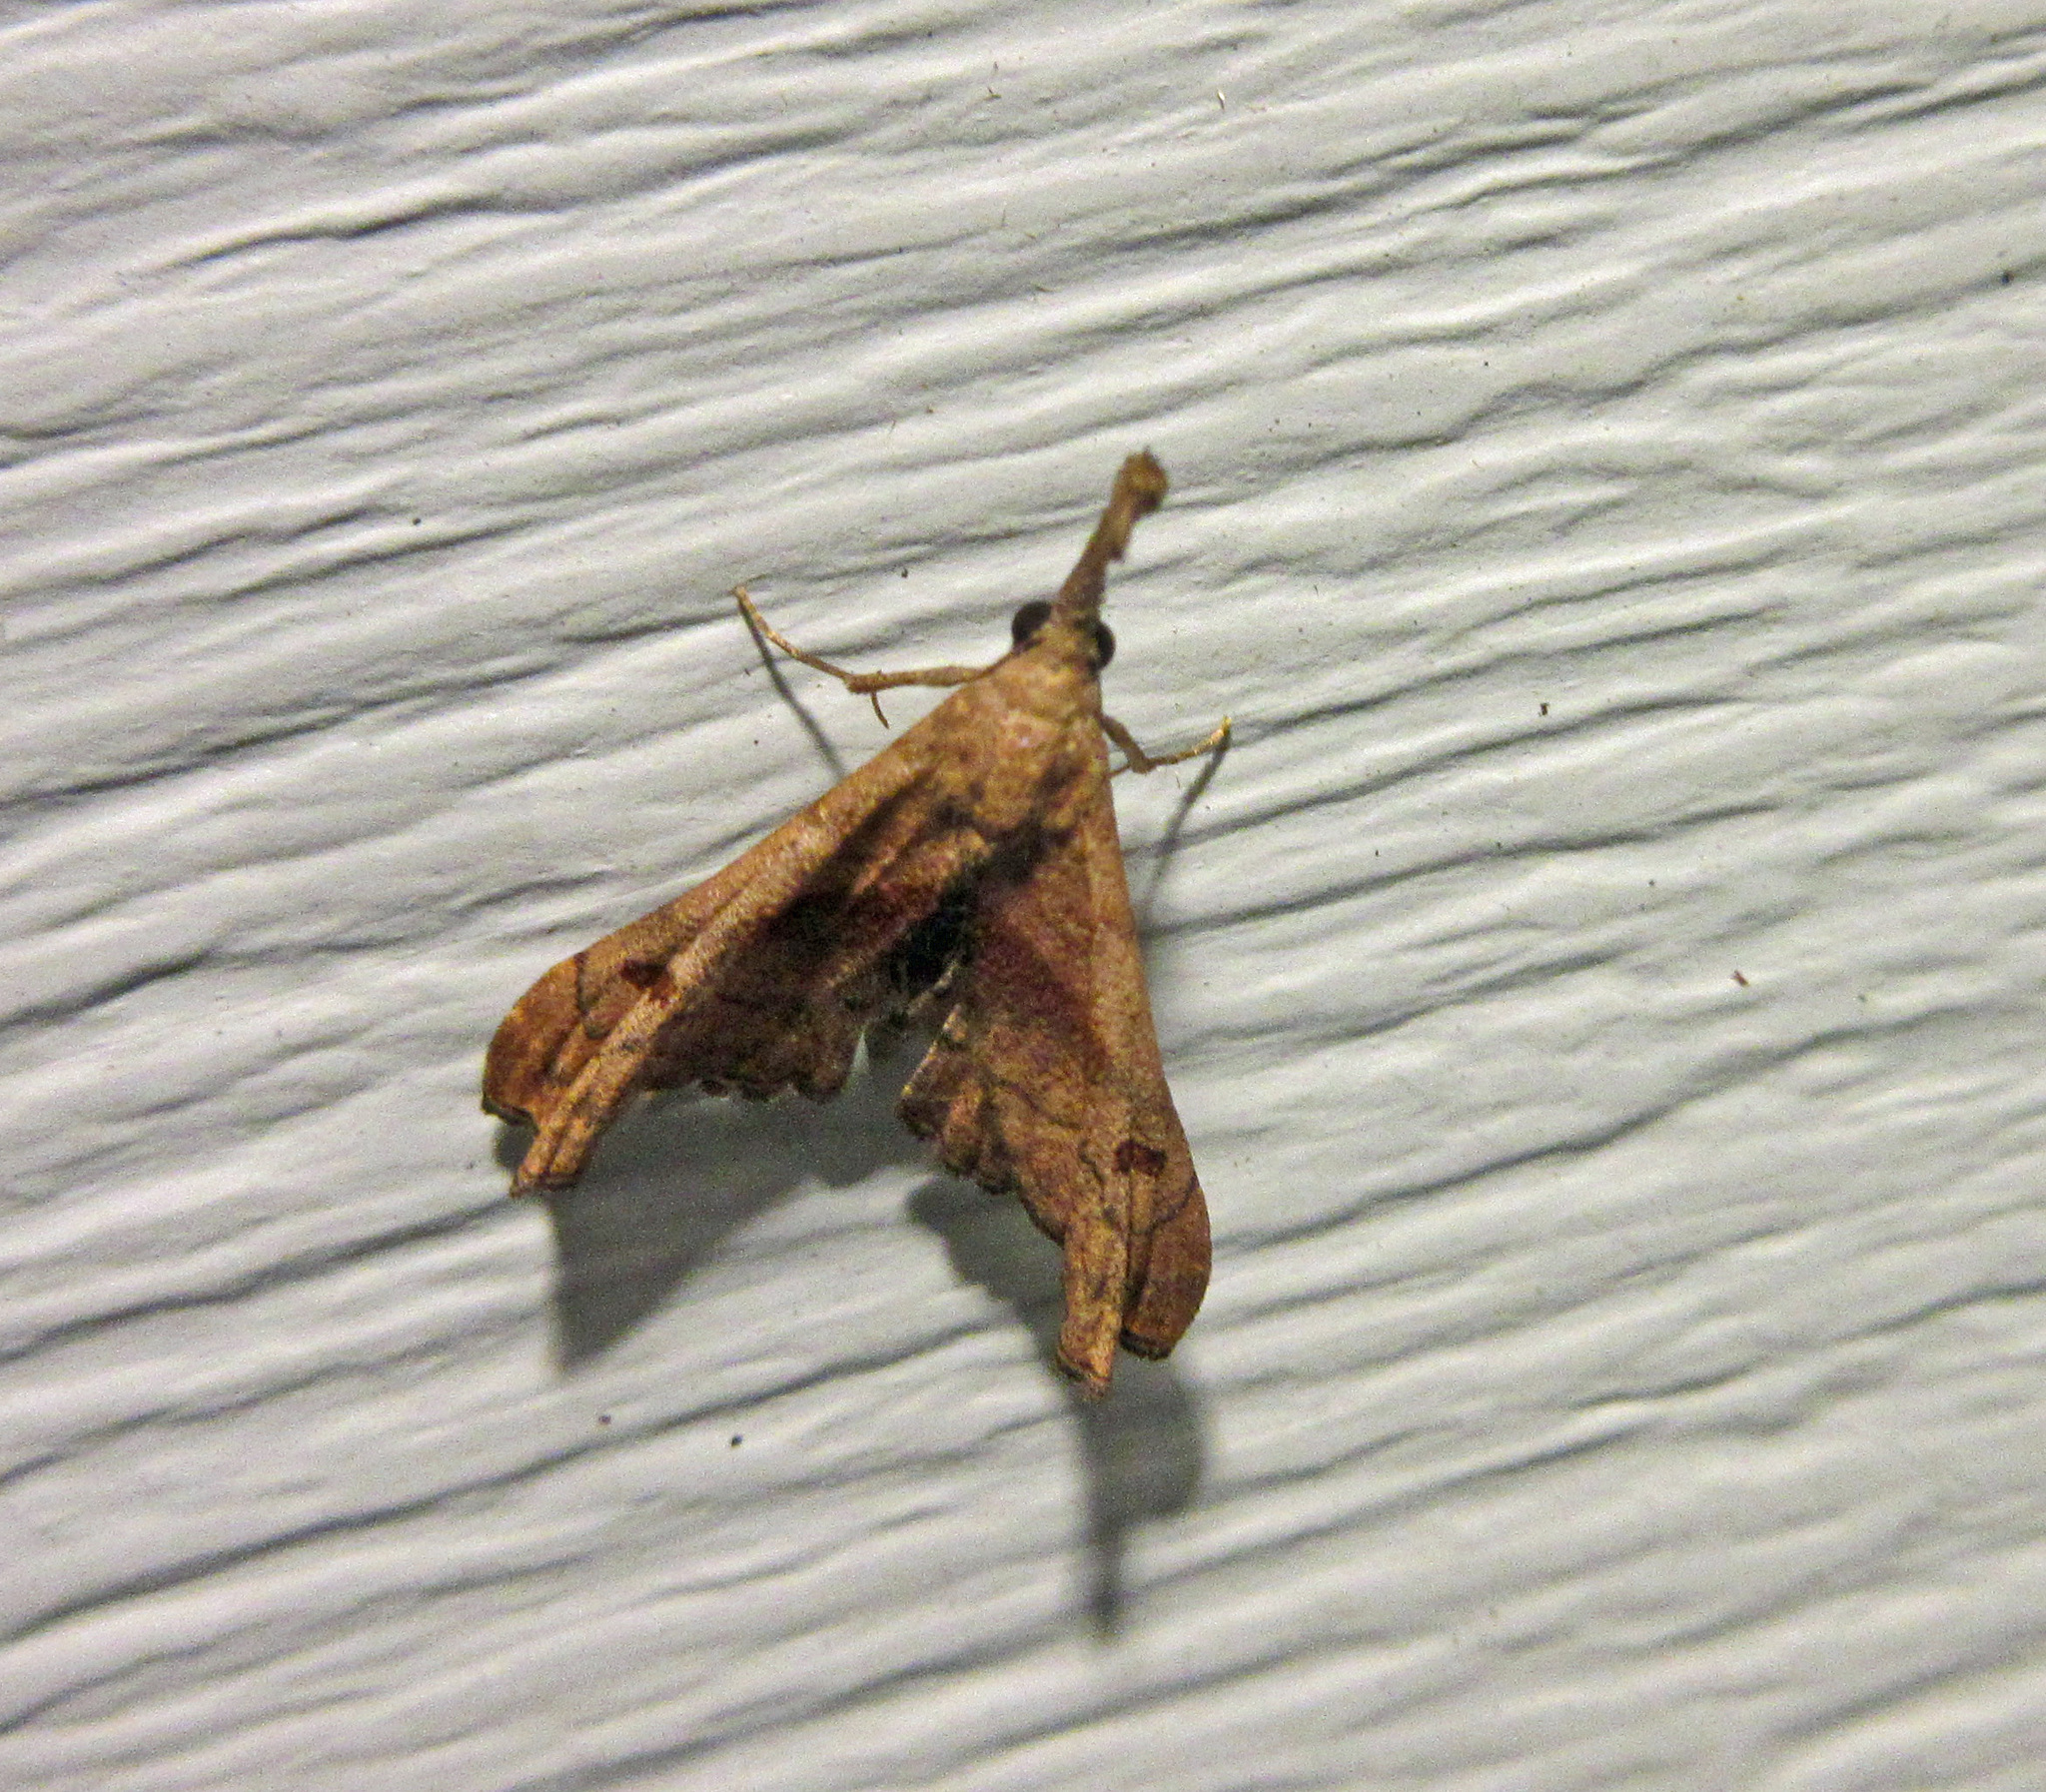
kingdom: Animalia
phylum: Arthropoda
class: Insecta
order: Lepidoptera
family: Erebidae
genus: Palthis
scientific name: Palthis angulalis
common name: Dark-spotted palthis moth
